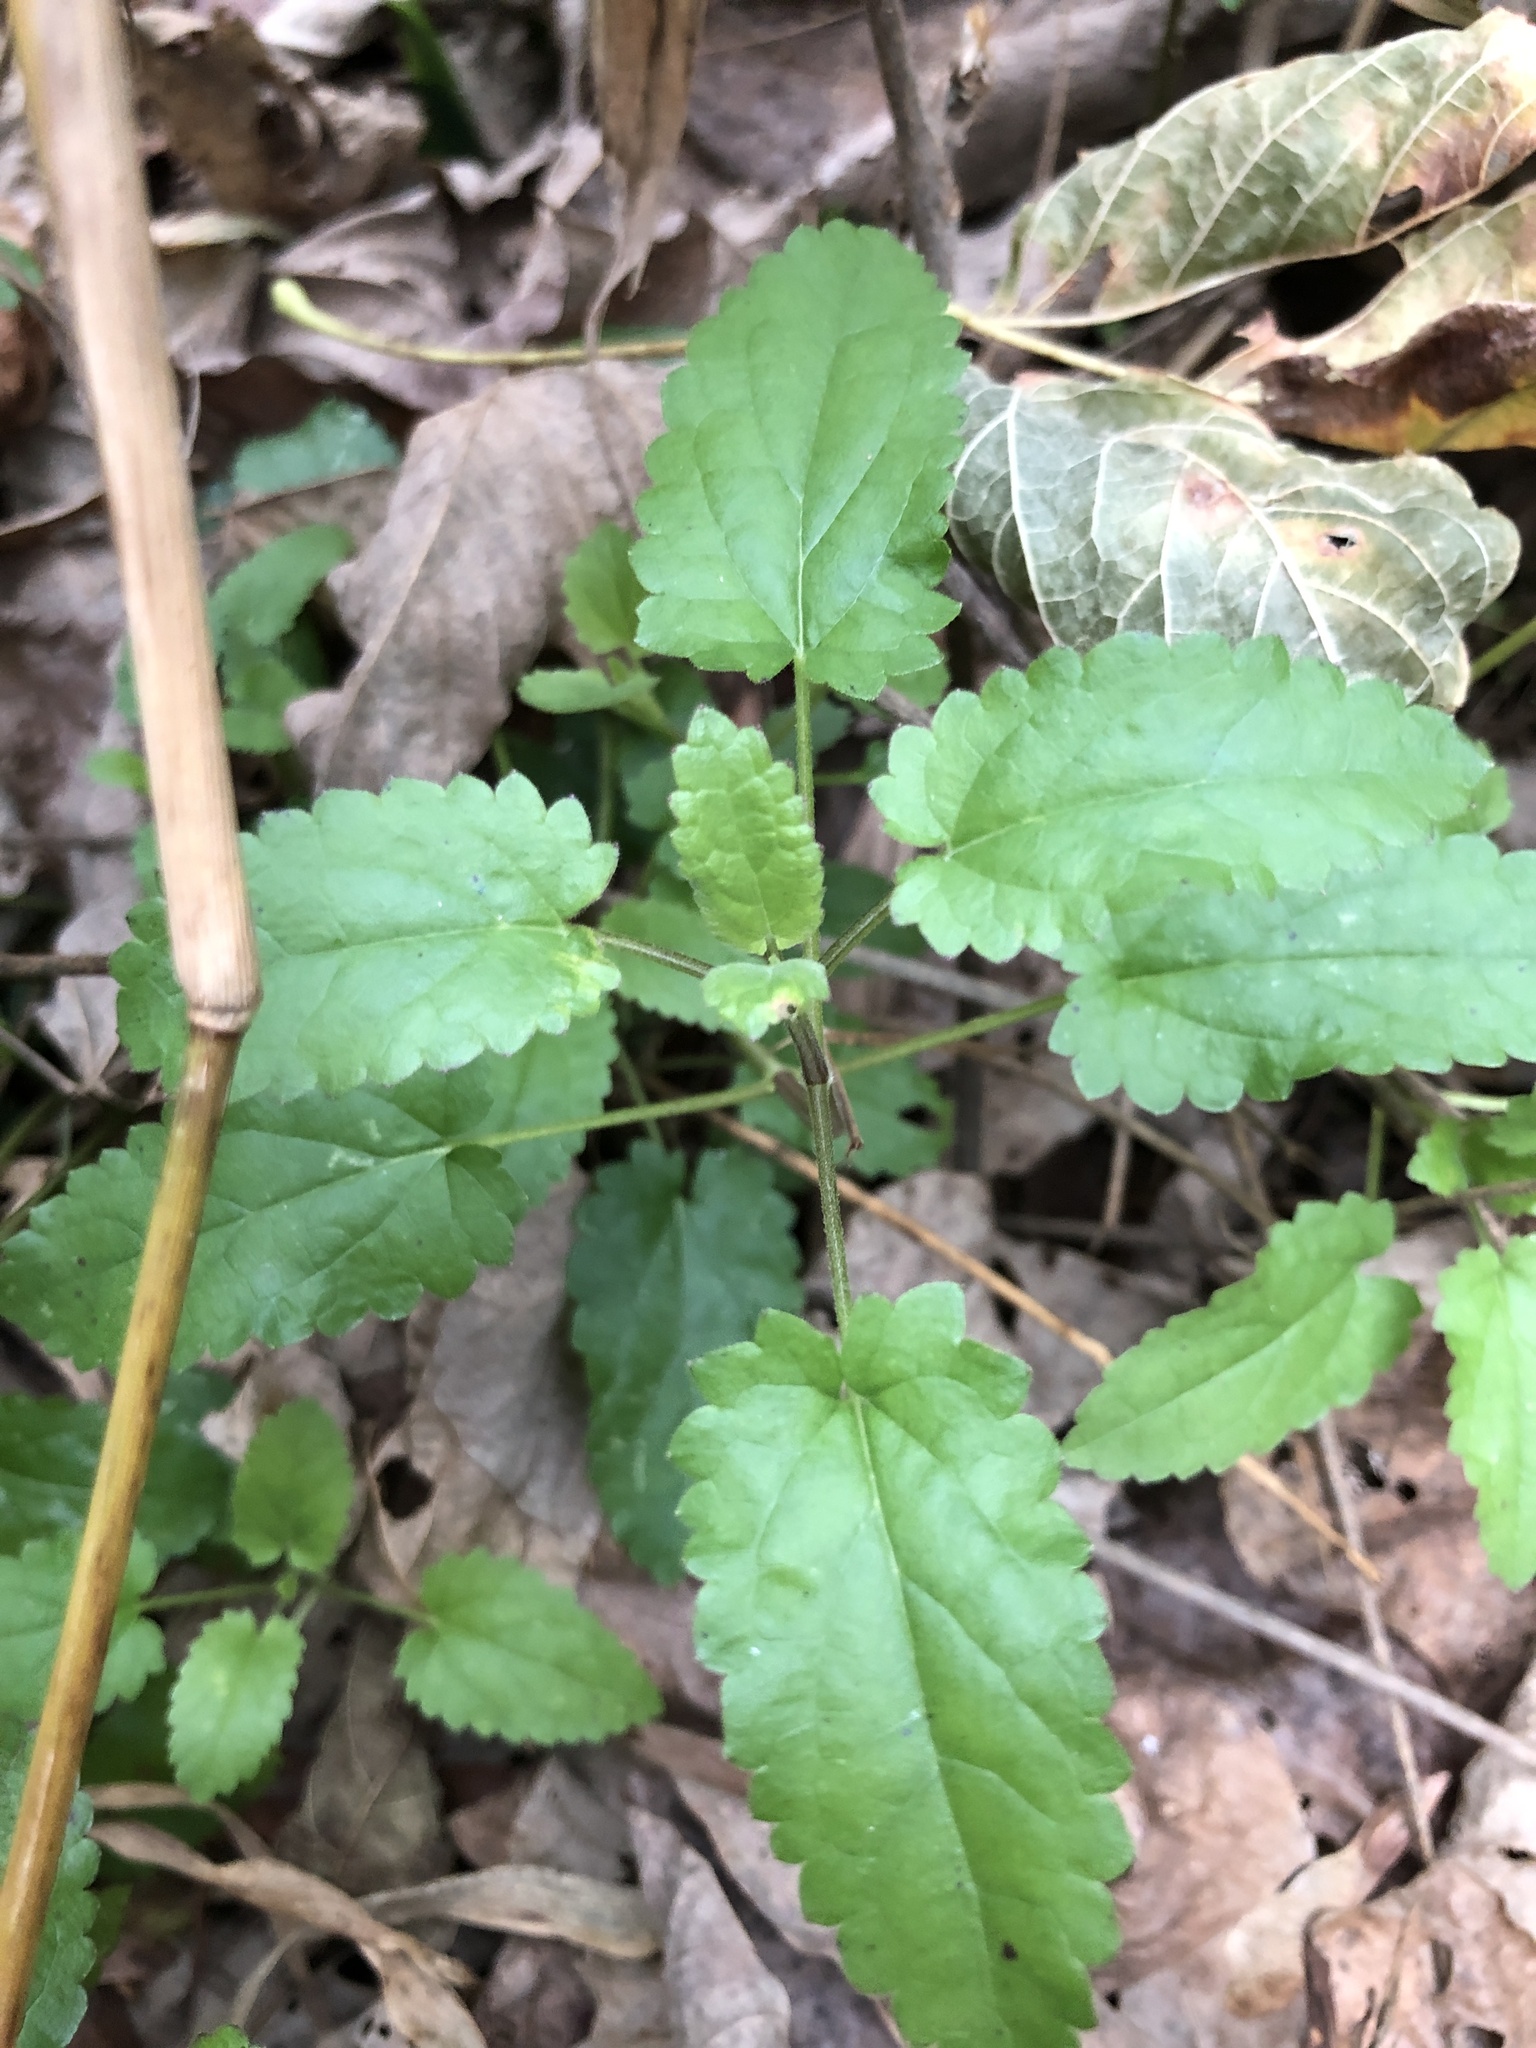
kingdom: Plantae
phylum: Tracheophyta
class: Magnoliopsida
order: Lamiales
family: Lamiaceae
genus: Stachys
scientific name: Stachys floridana
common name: Florida betony
